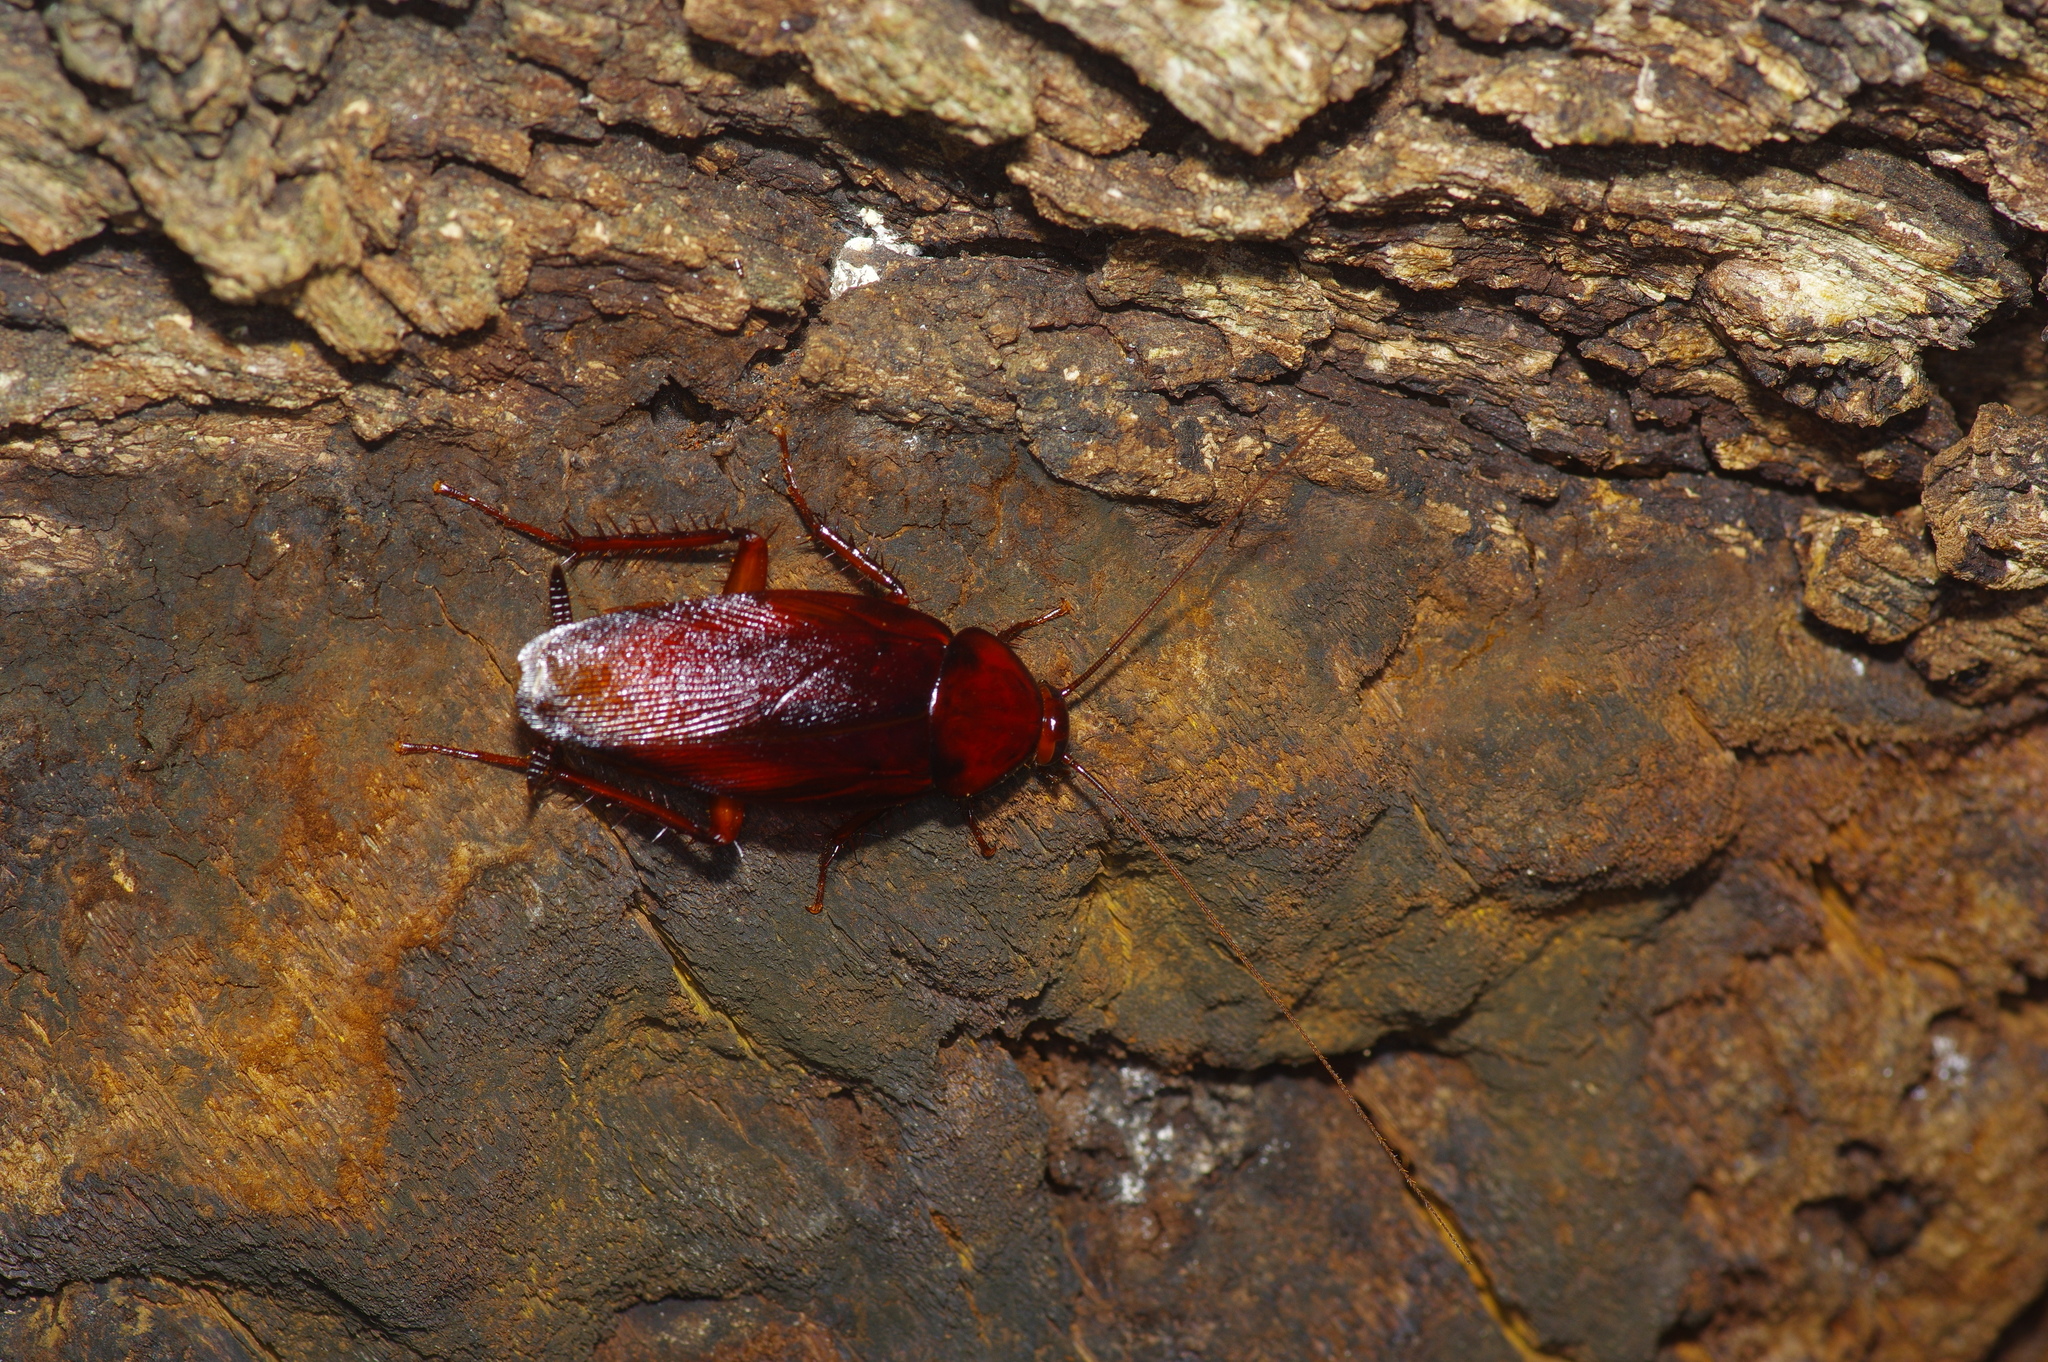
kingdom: Animalia
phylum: Arthropoda
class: Insecta
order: Blattodea
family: Blattidae
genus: Periplaneta
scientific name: Periplaneta fuliginosa
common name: Smokeybrown cockroad
